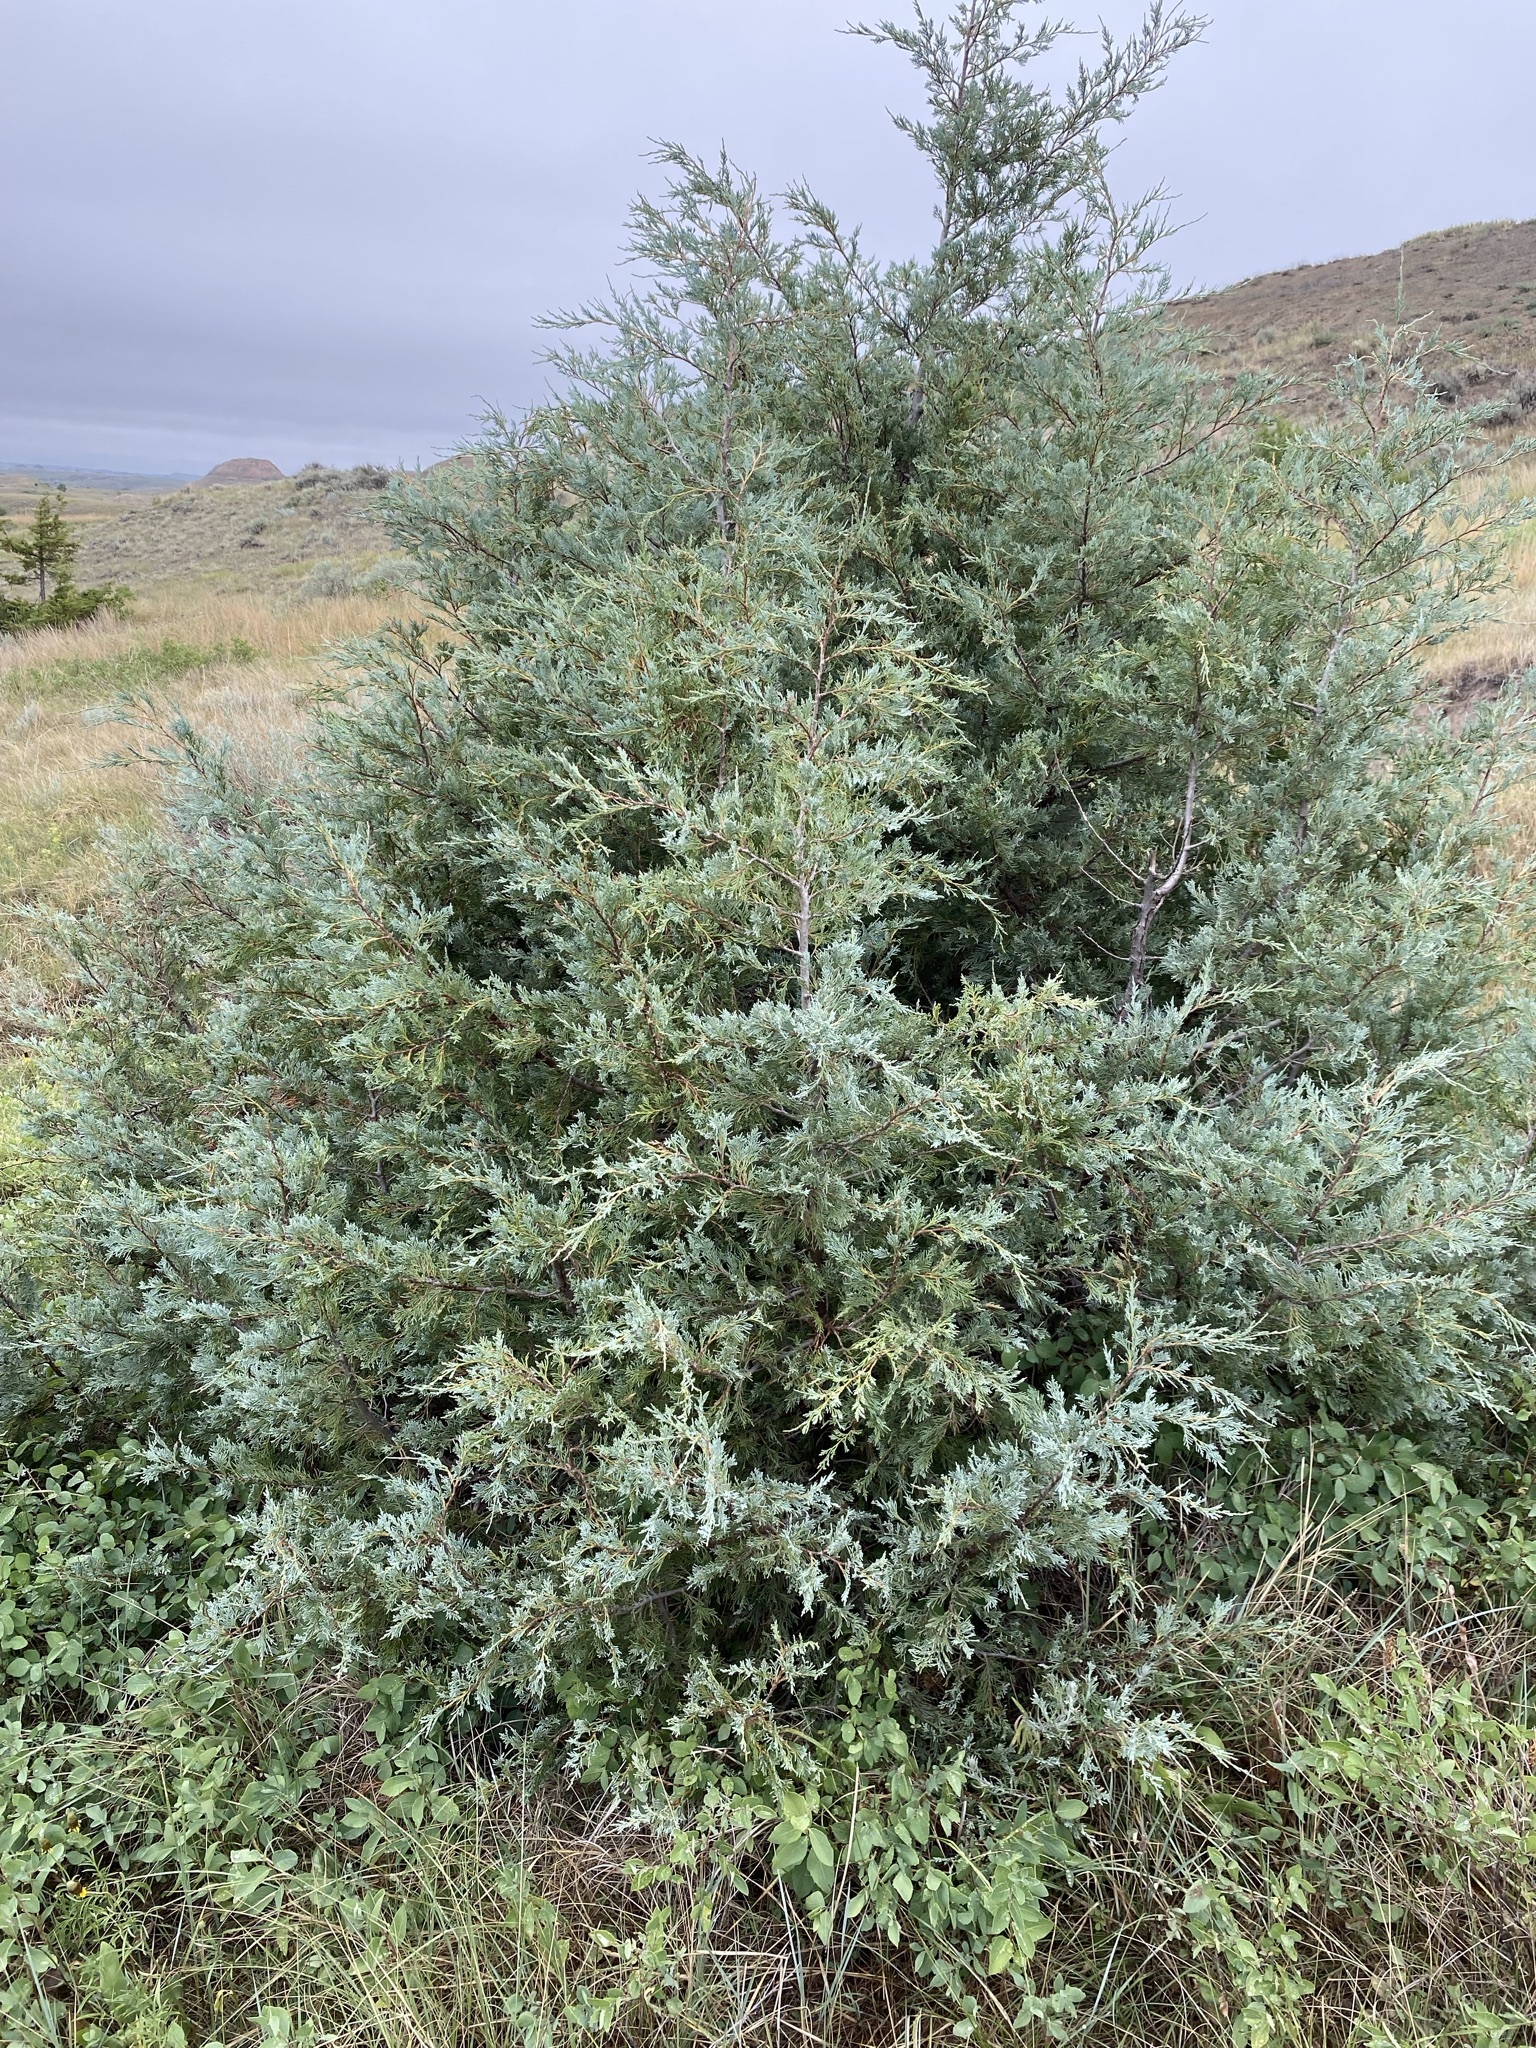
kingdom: Plantae
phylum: Tracheophyta
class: Pinopsida
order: Pinales
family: Cupressaceae
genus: Juniperus
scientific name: Juniperus scopulorum
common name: Rocky mountain juniper
